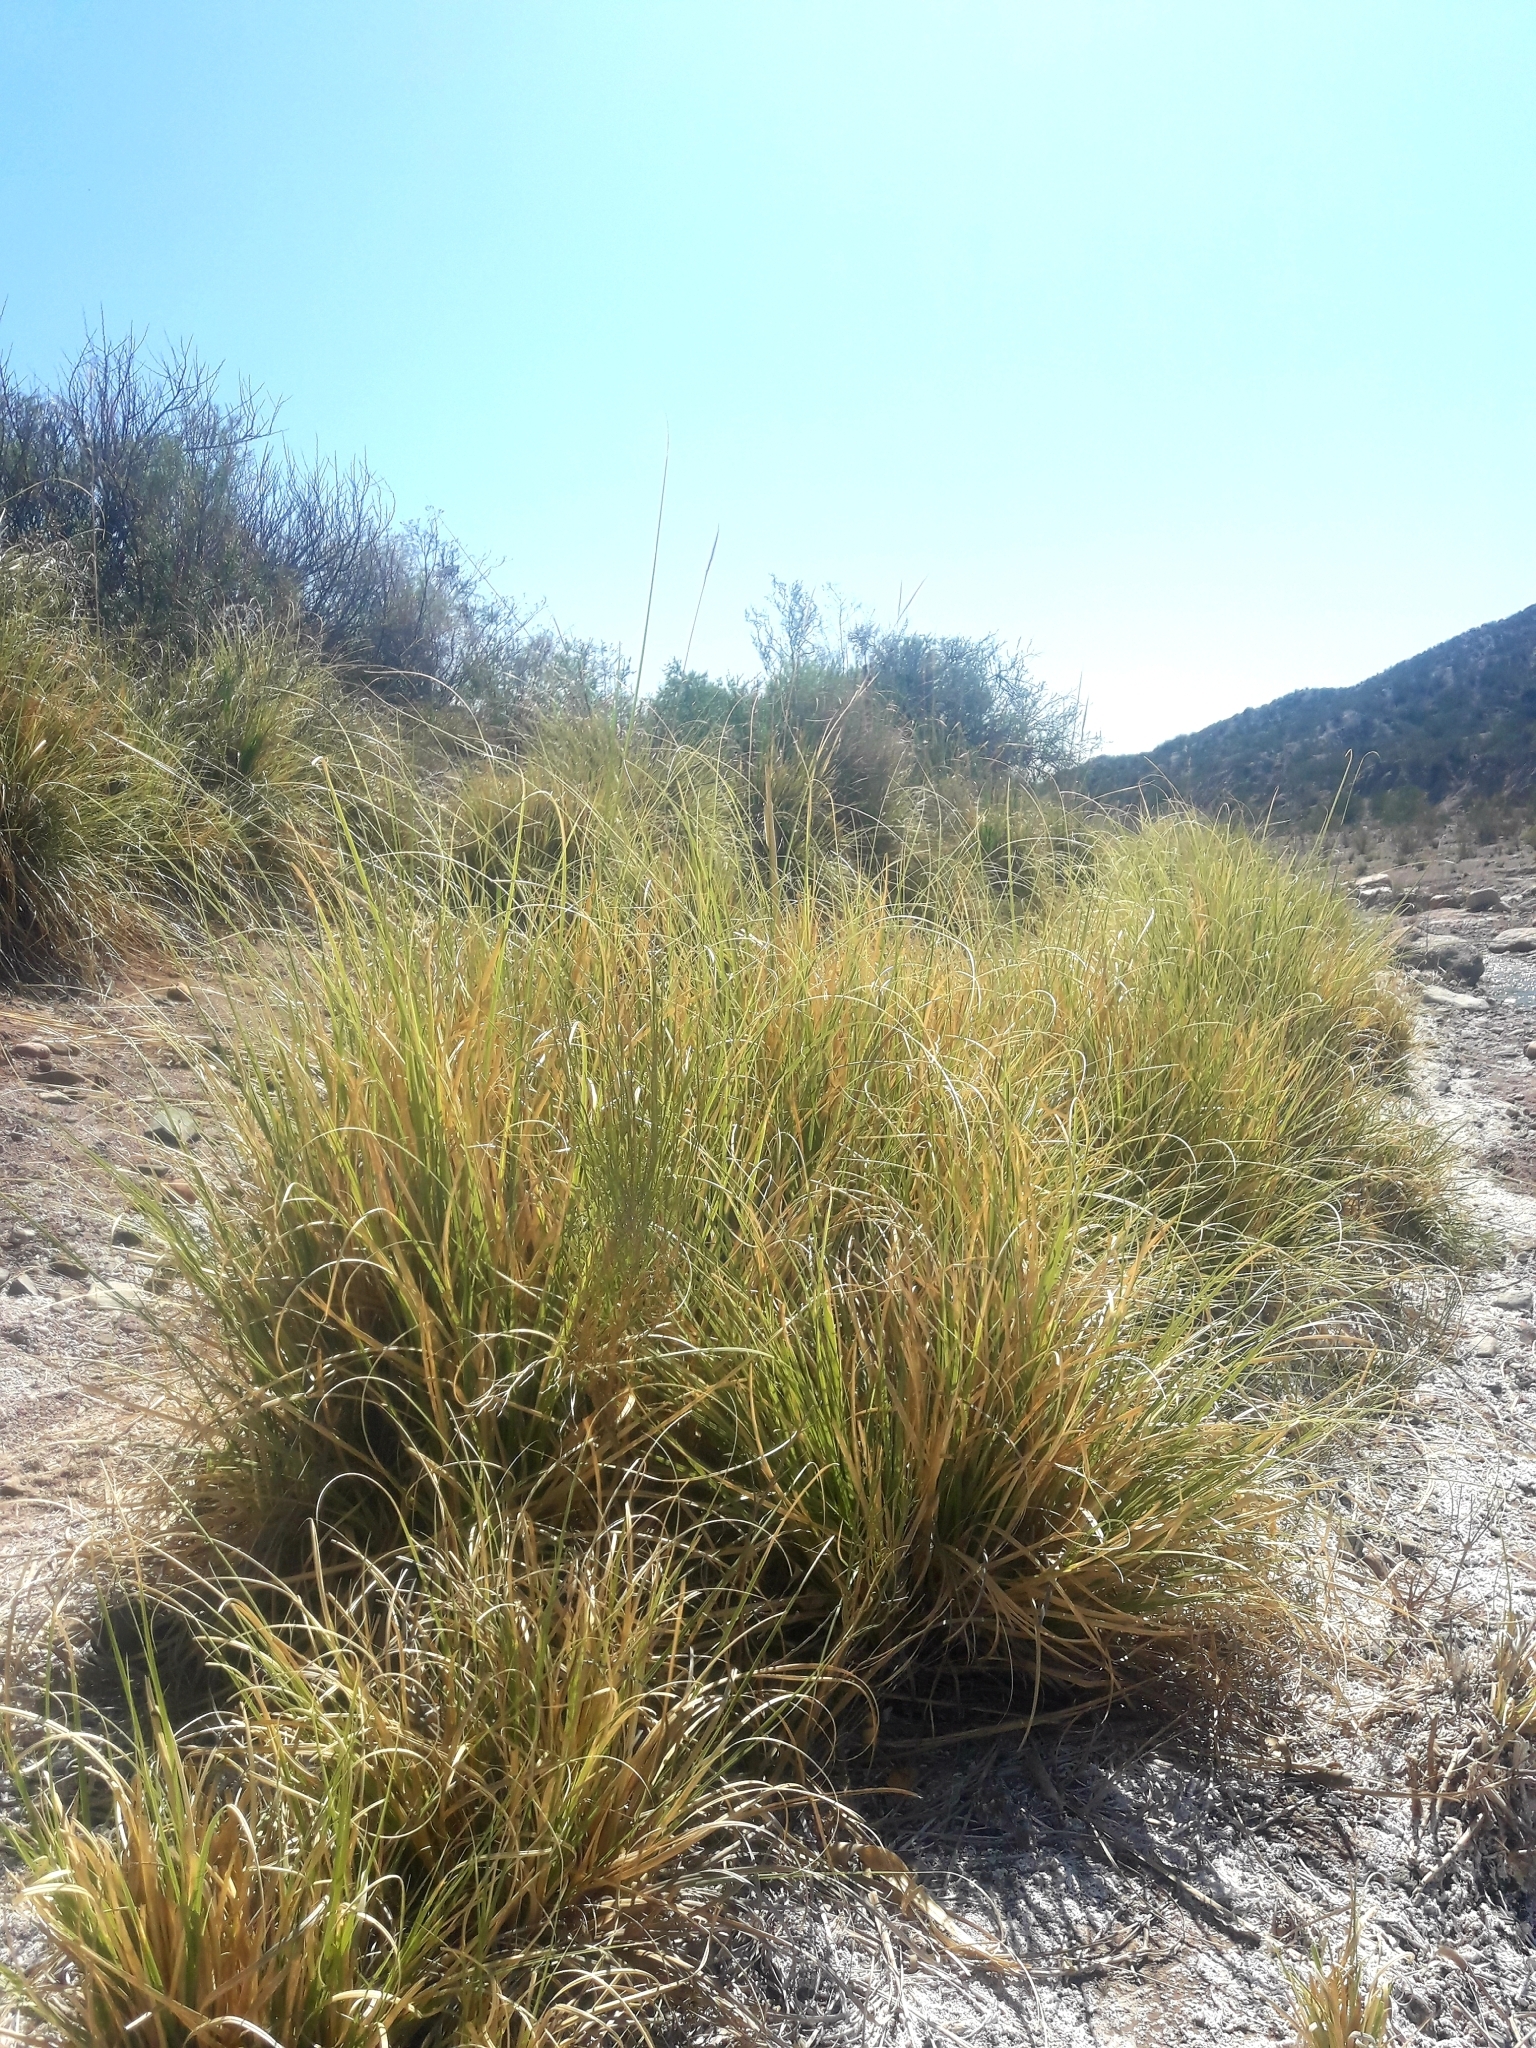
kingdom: Plantae
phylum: Tracheophyta
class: Liliopsida
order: Poales
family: Poaceae
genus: Cortaderia
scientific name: Cortaderia selloana
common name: Uruguayan pampas grass
